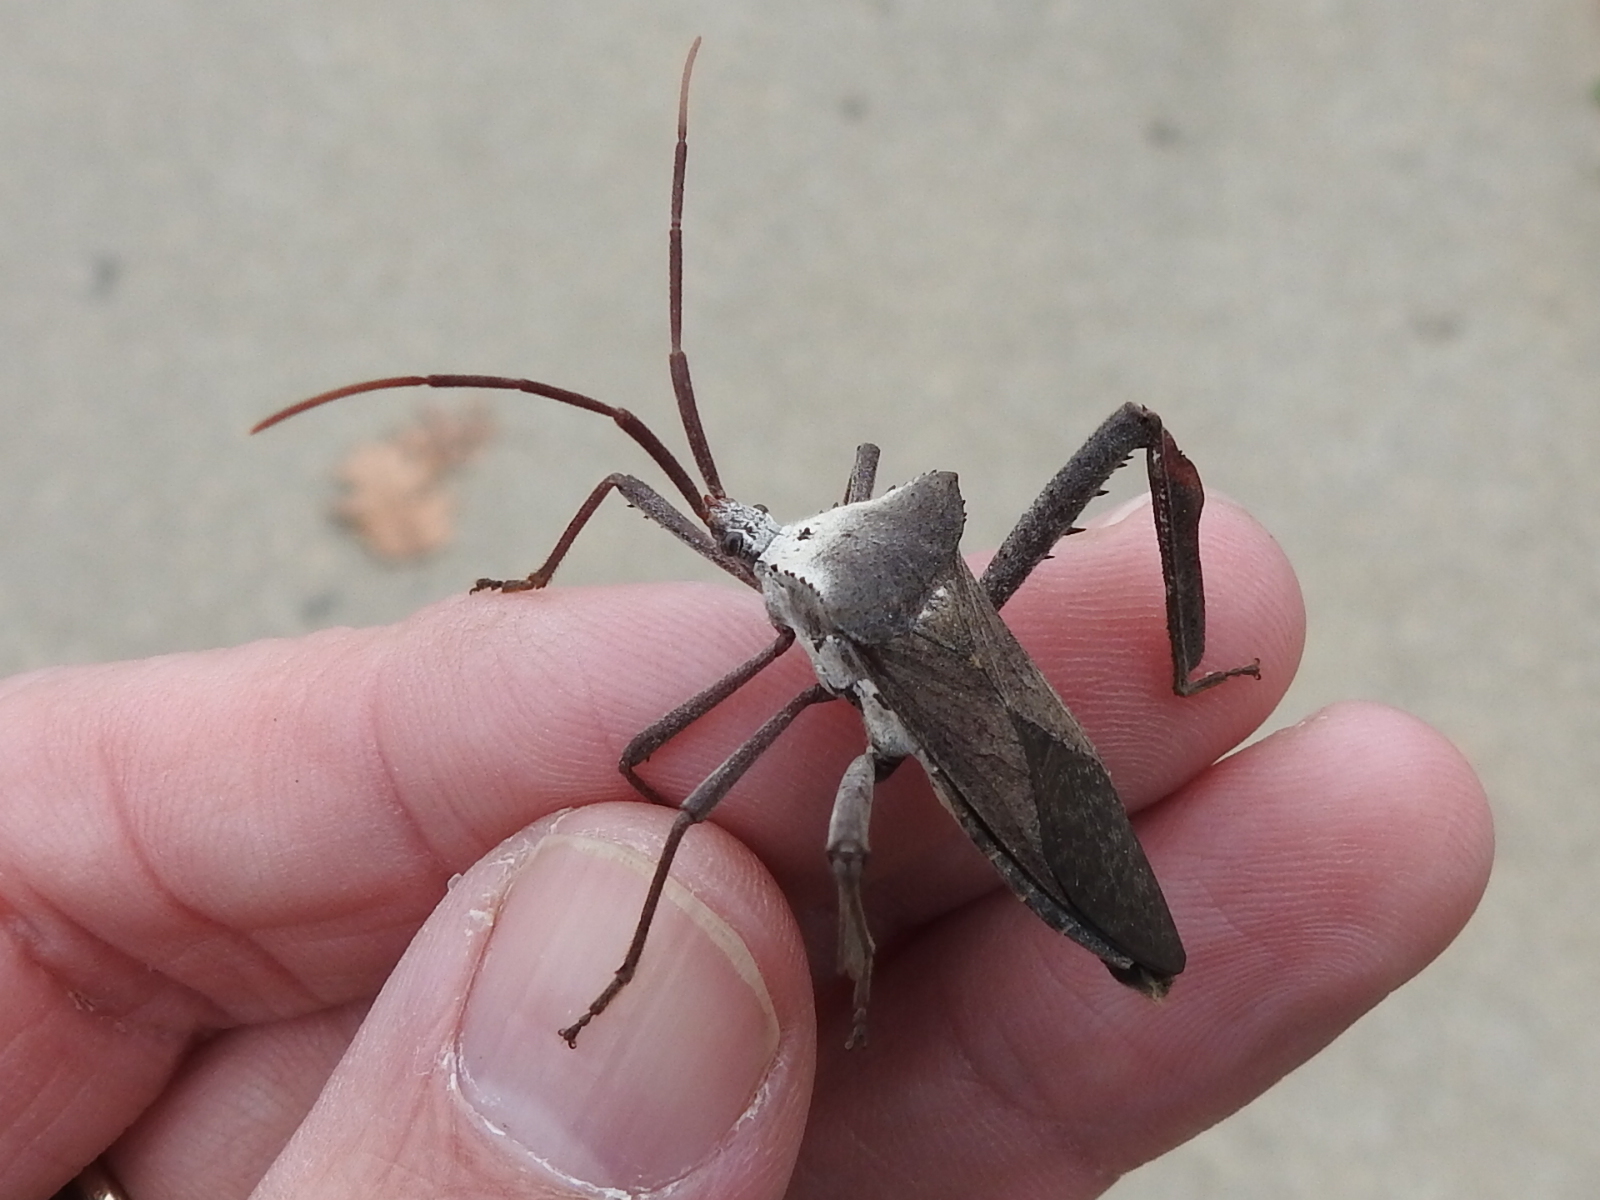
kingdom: Animalia
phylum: Arthropoda
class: Insecta
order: Hemiptera
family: Coreidae
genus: Acanthocephala
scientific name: Acanthocephala declivis
